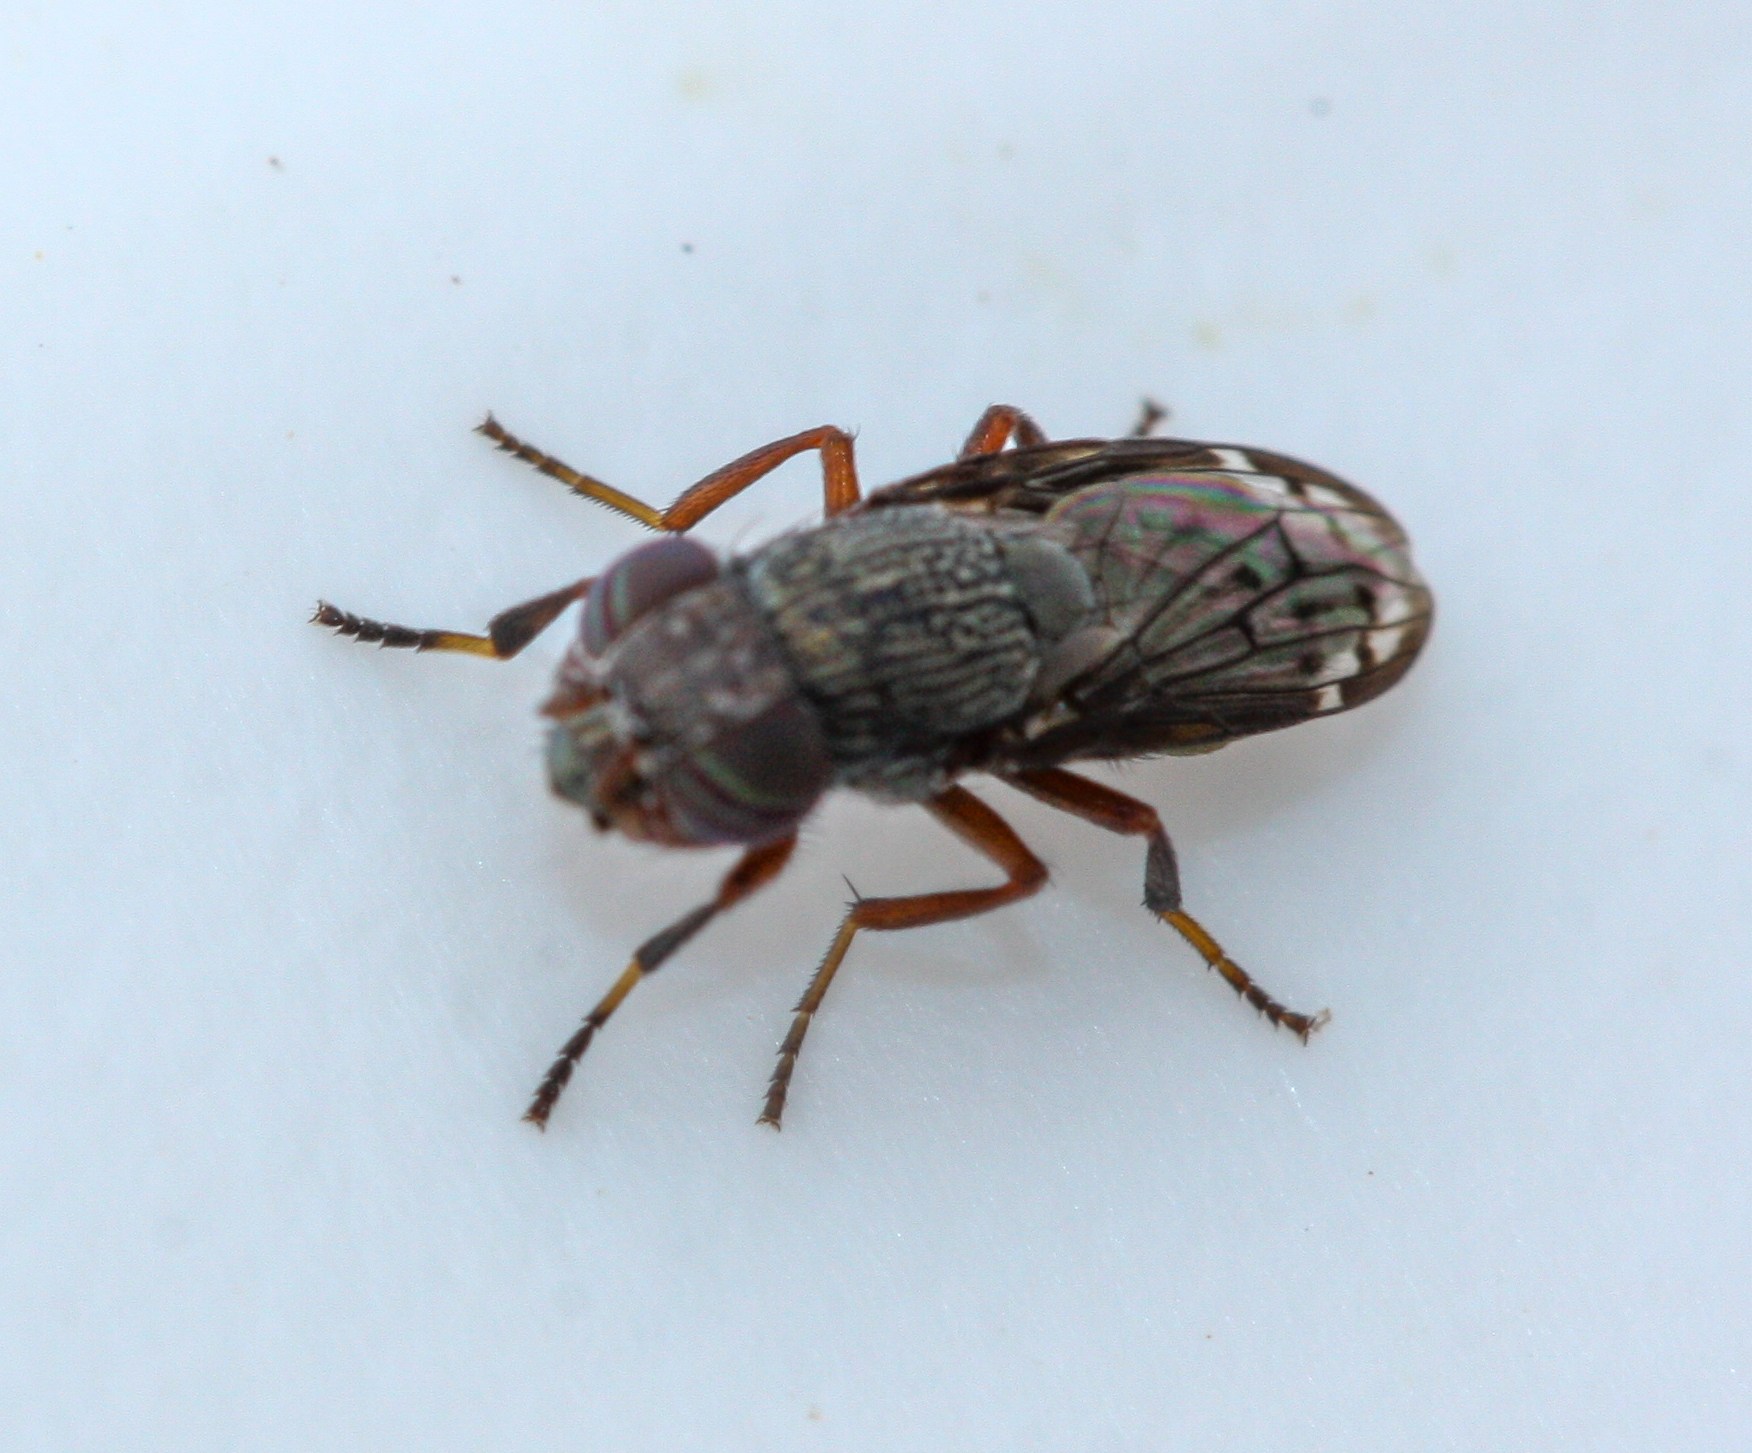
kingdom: Animalia
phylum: Arthropoda
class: Insecta
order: Diptera
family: Ulidiidae
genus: Notogramma
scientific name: Notogramma purpuratum
